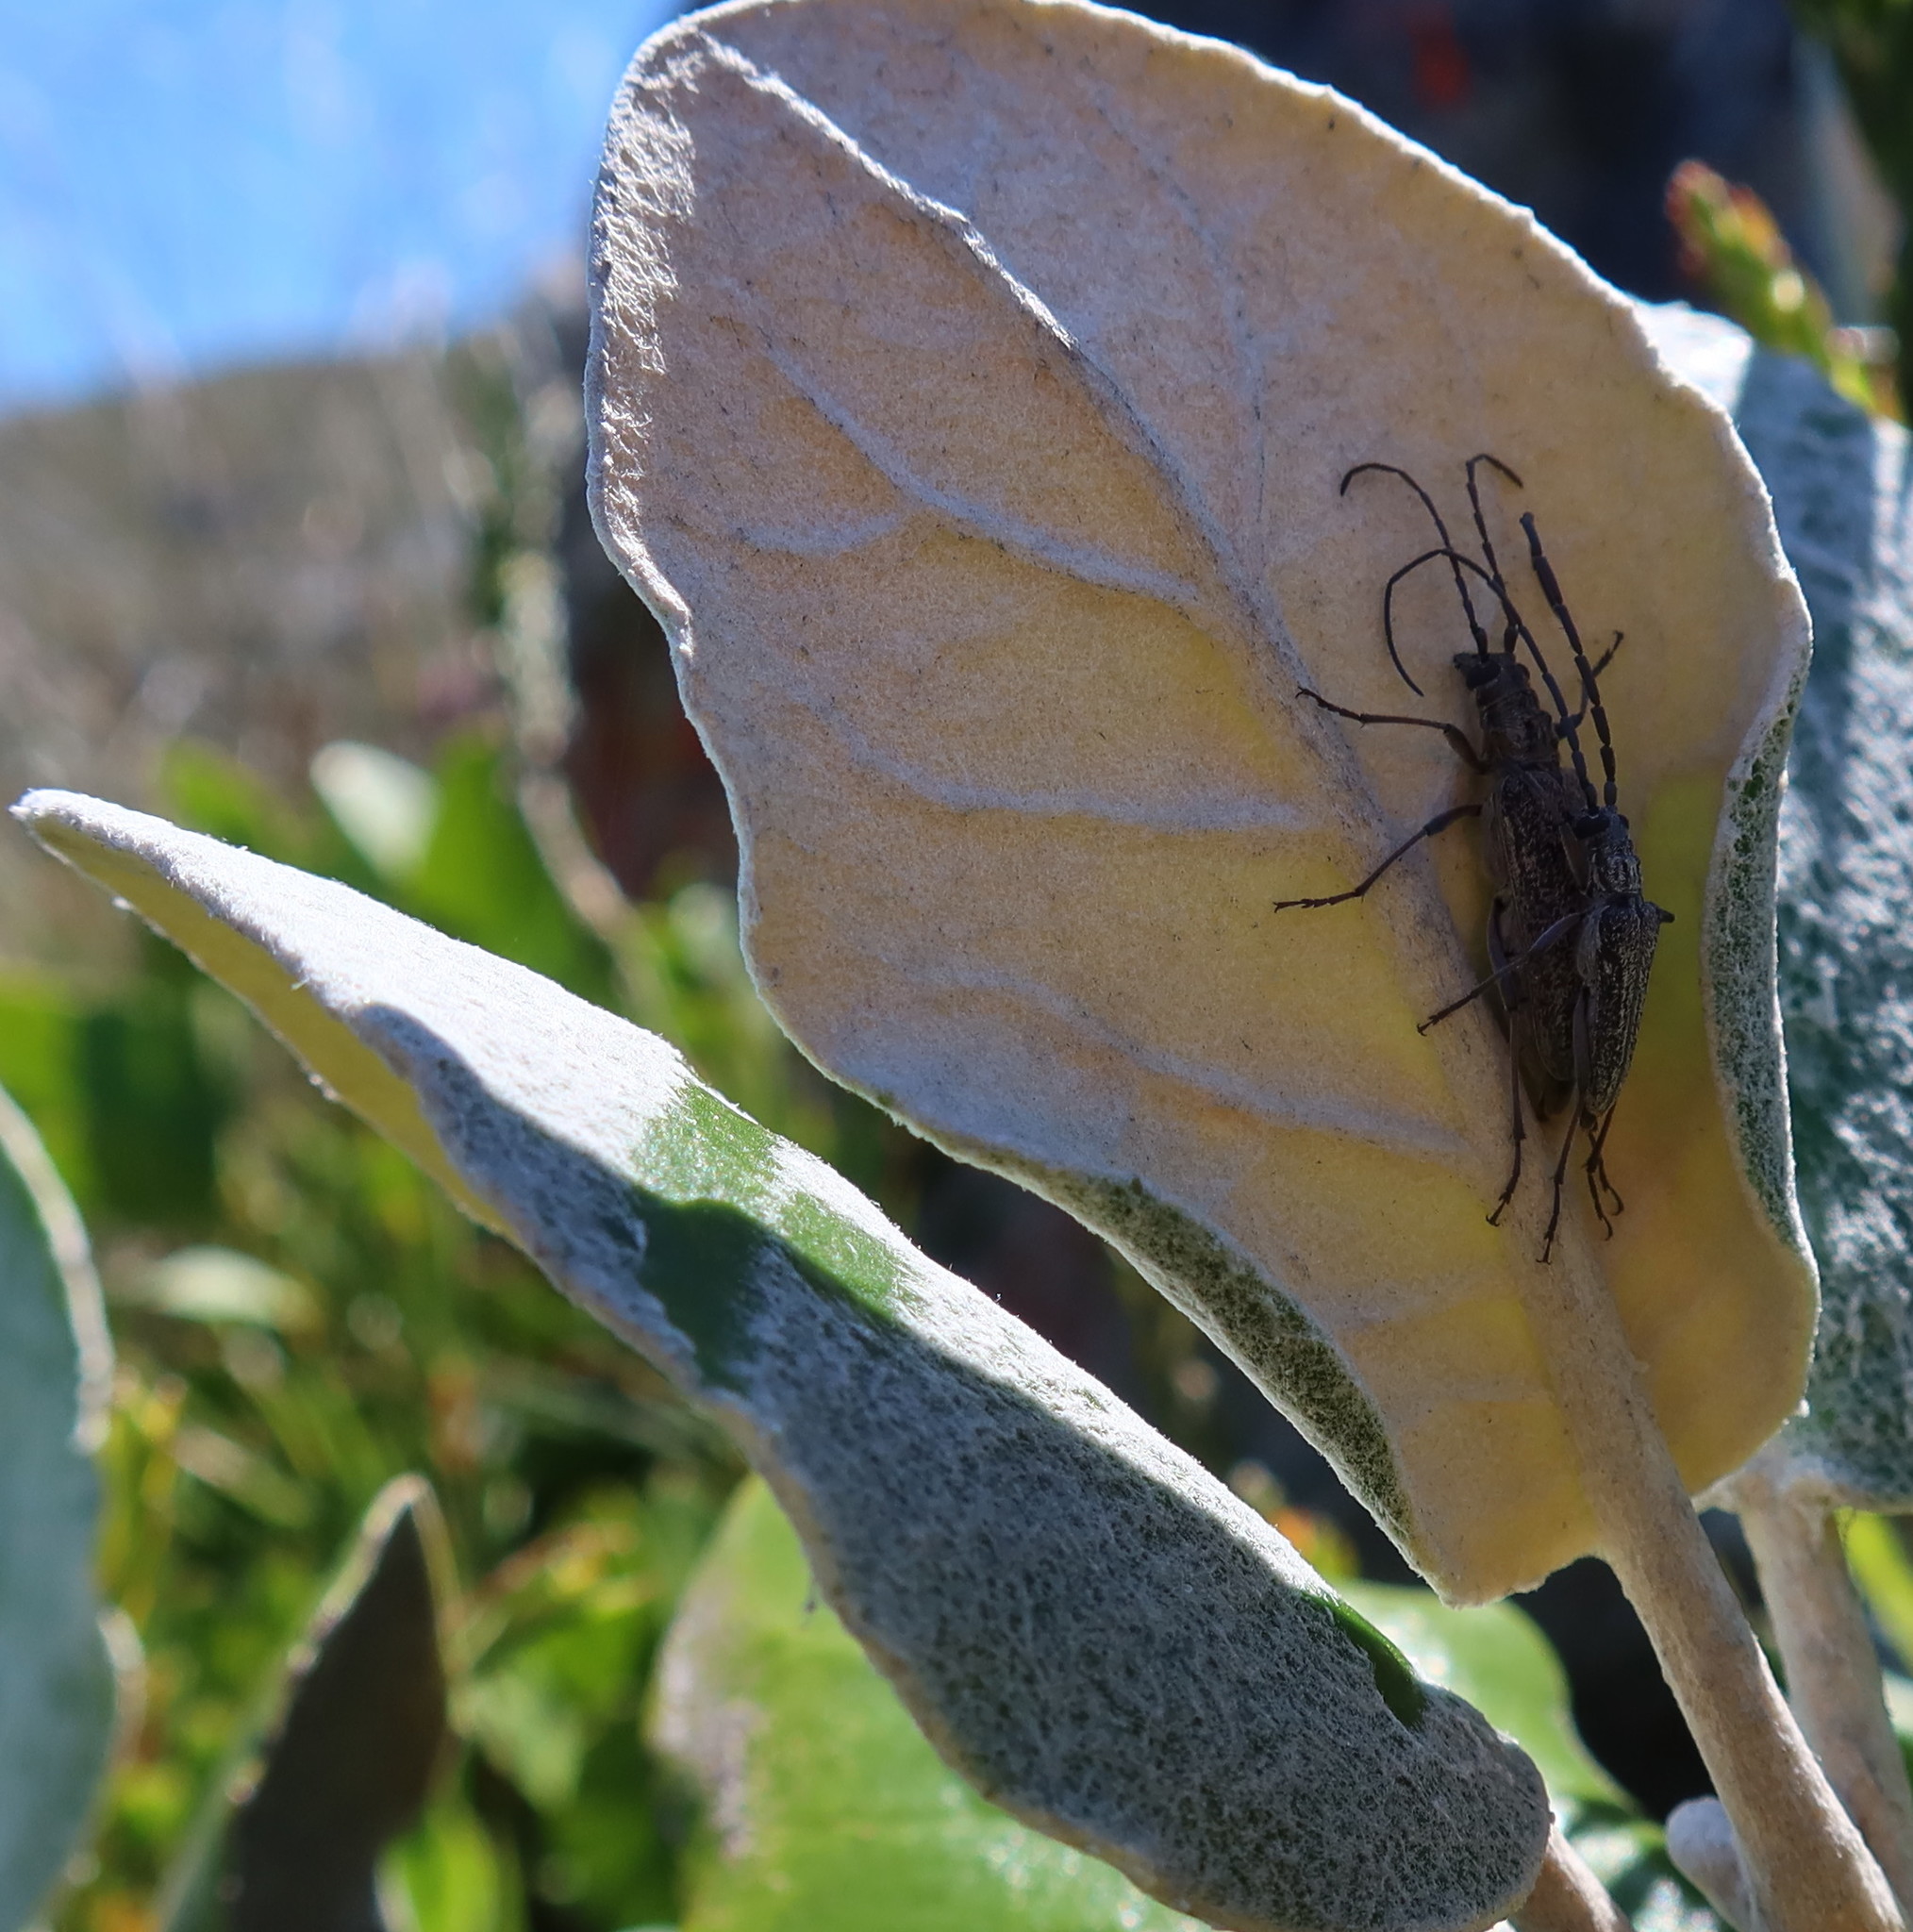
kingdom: Animalia
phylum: Arthropoda
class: Insecta
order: Coleoptera
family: Cerambycidae
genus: Aristogitus
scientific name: Aristogitus cylindricus
